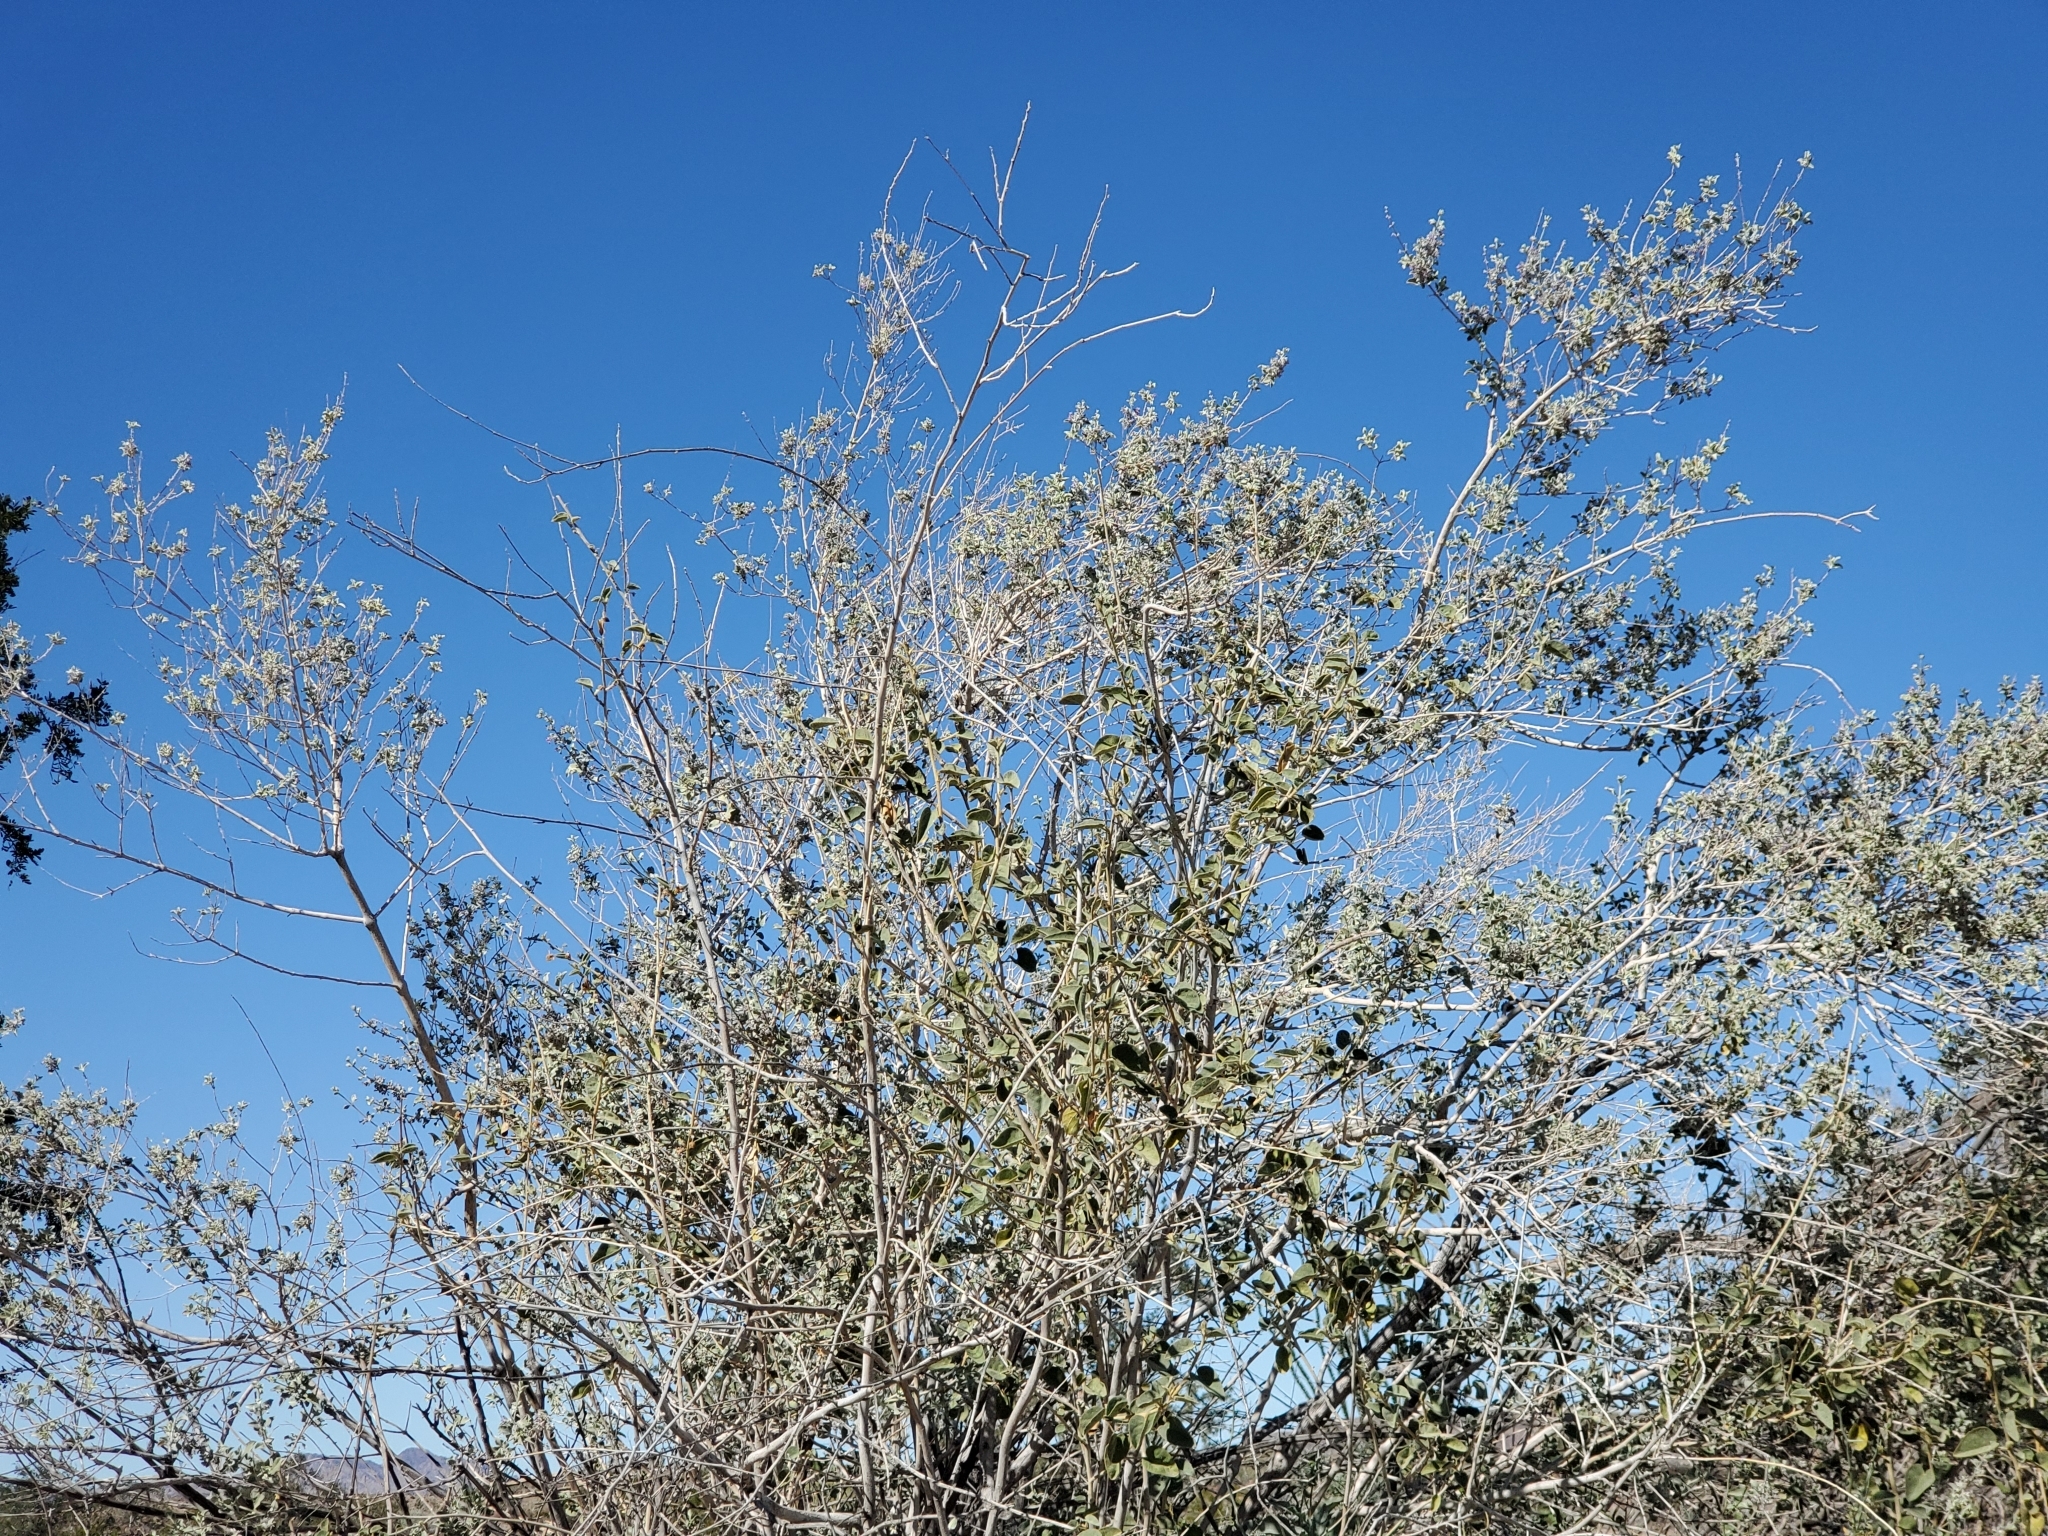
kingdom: Plantae
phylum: Tracheophyta
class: Magnoliopsida
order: Lamiales
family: Lamiaceae
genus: Condea
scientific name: Condea emoryi
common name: Chia
